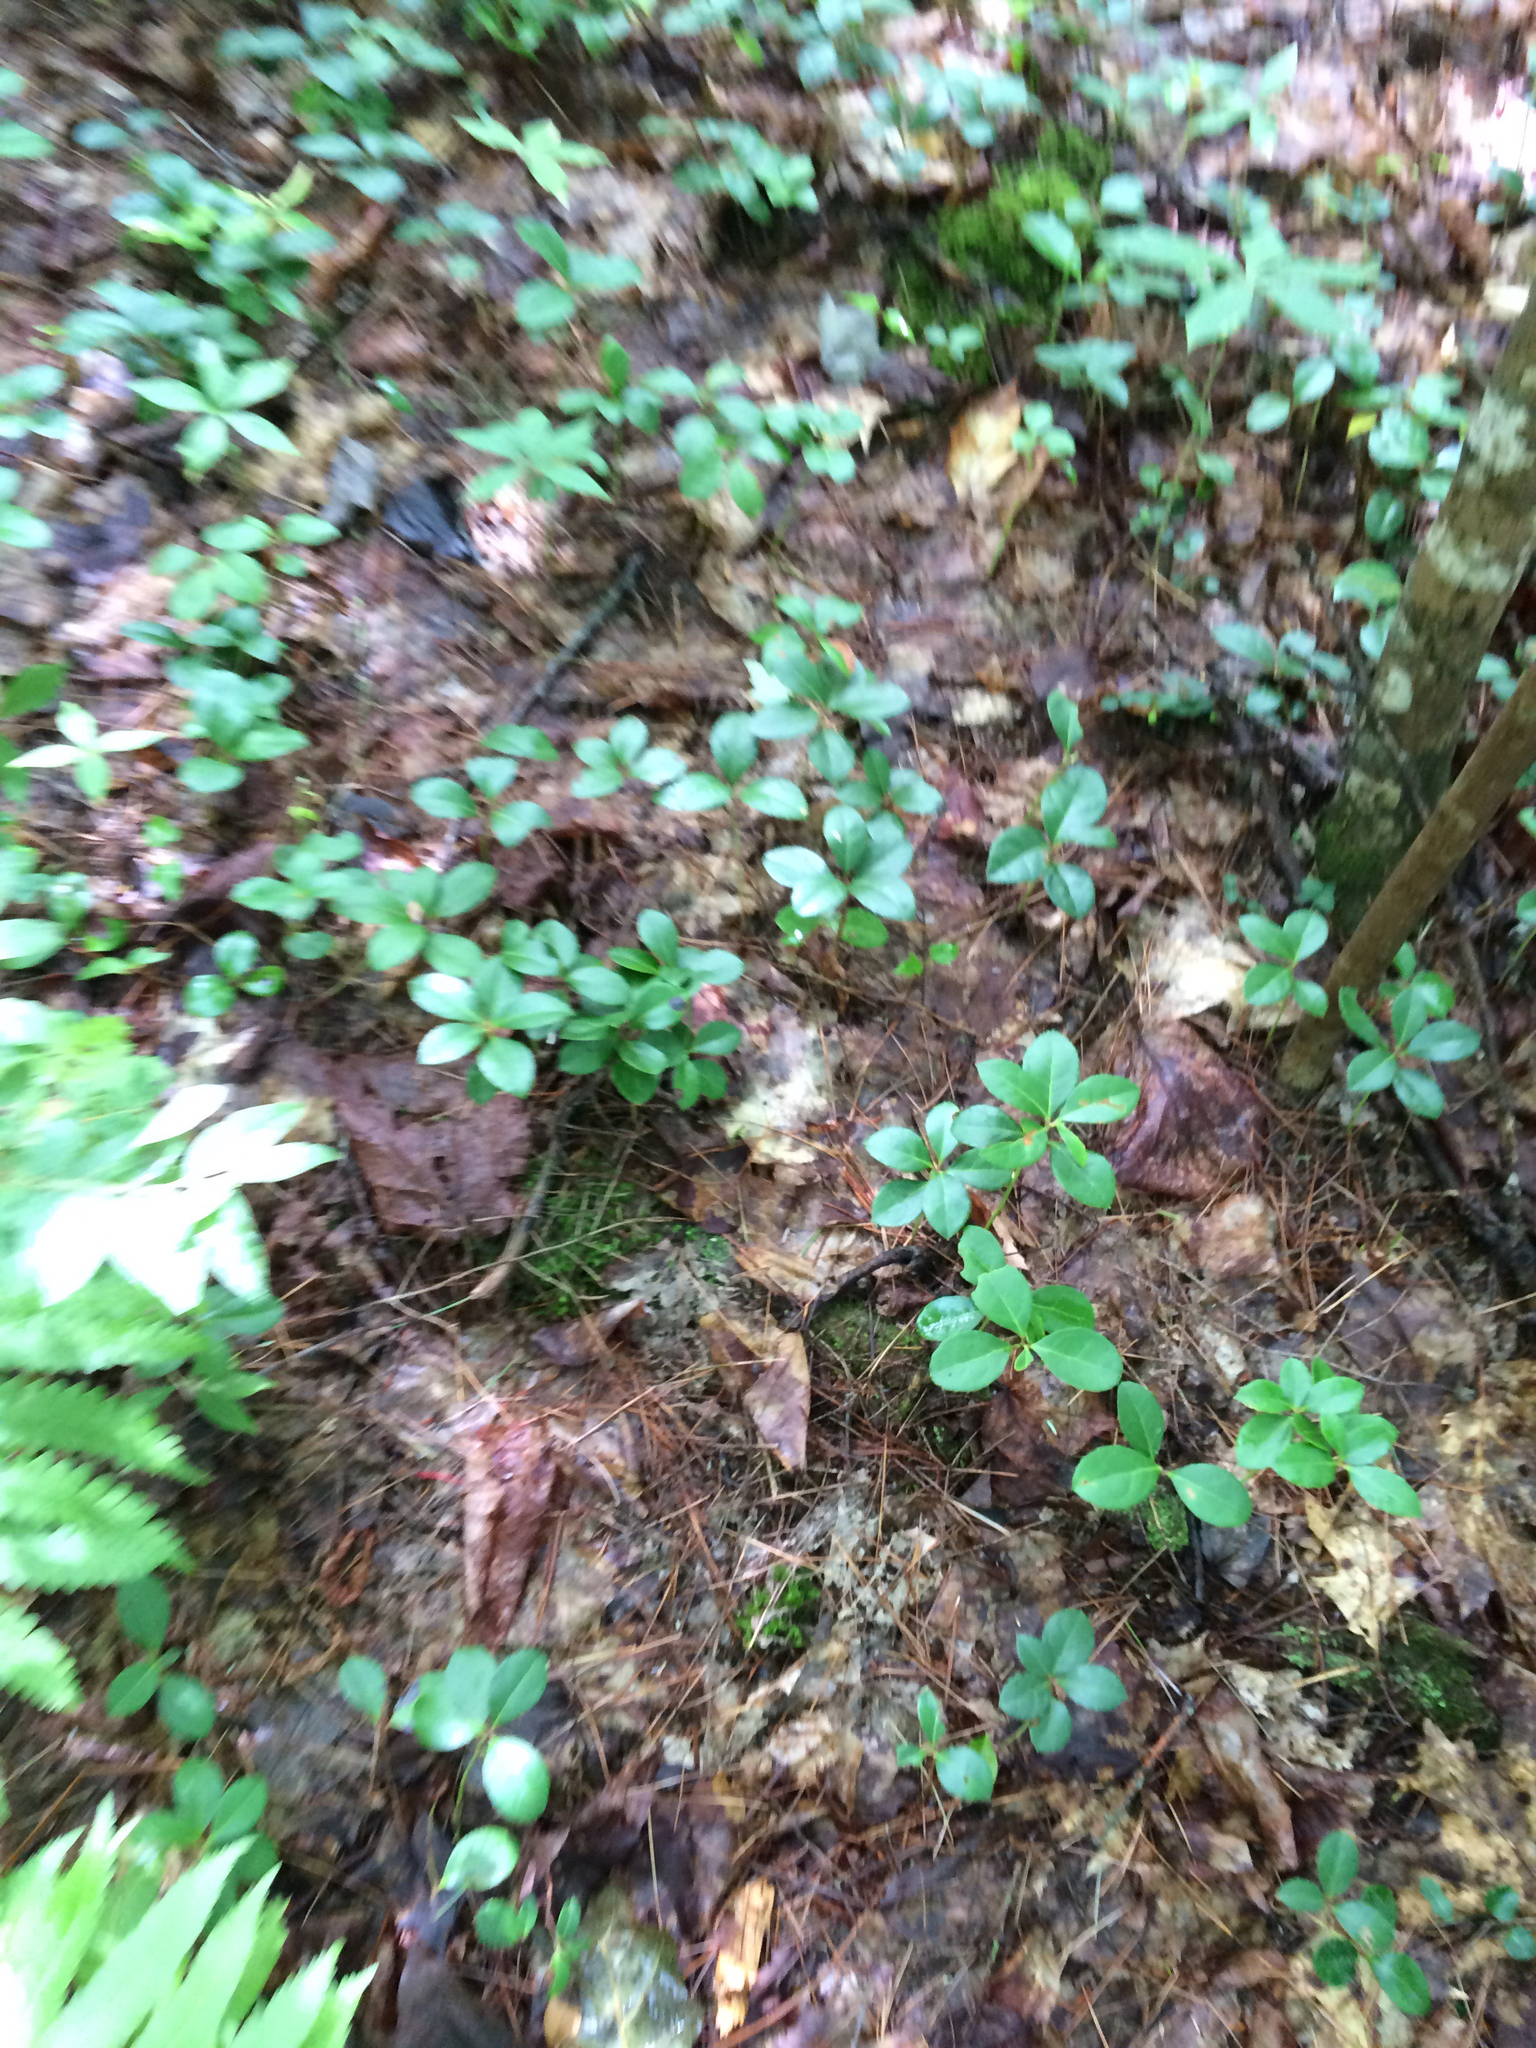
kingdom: Plantae
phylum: Tracheophyta
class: Magnoliopsida
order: Ericales
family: Ericaceae
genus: Gaultheria
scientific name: Gaultheria procumbens
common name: Checkerberry
